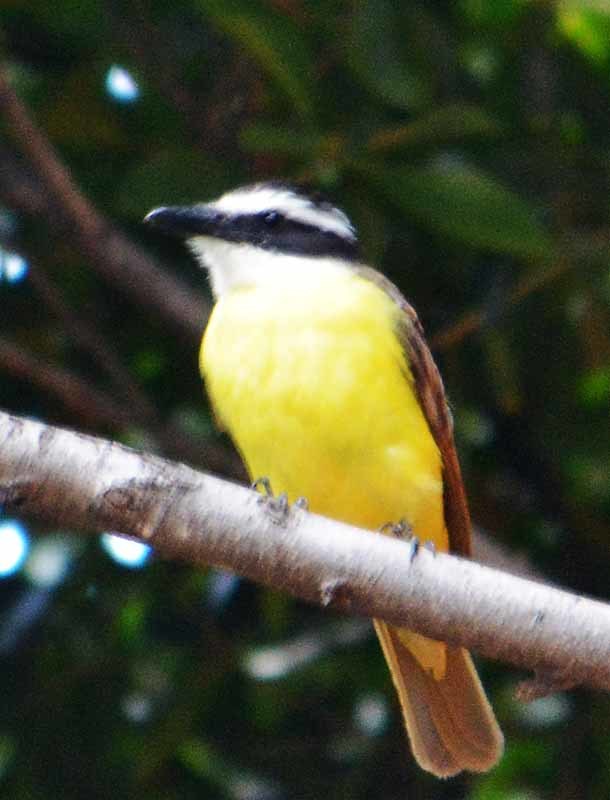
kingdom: Animalia
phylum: Chordata
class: Aves
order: Passeriformes
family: Tyrannidae
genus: Pitangus
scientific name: Pitangus sulphuratus
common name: Great kiskadee
